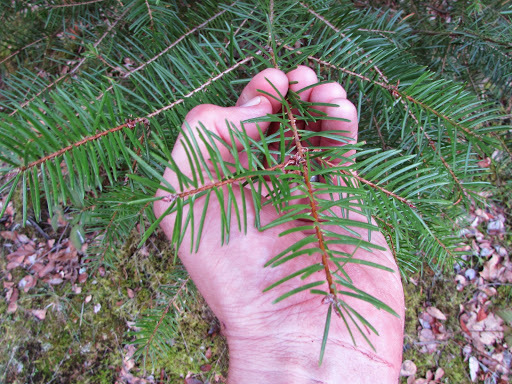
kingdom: Plantae
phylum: Tracheophyta
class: Pinopsida
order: Pinales
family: Pinaceae
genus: Pseudotsuga
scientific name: Pseudotsuga menziesii
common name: Douglas fir
